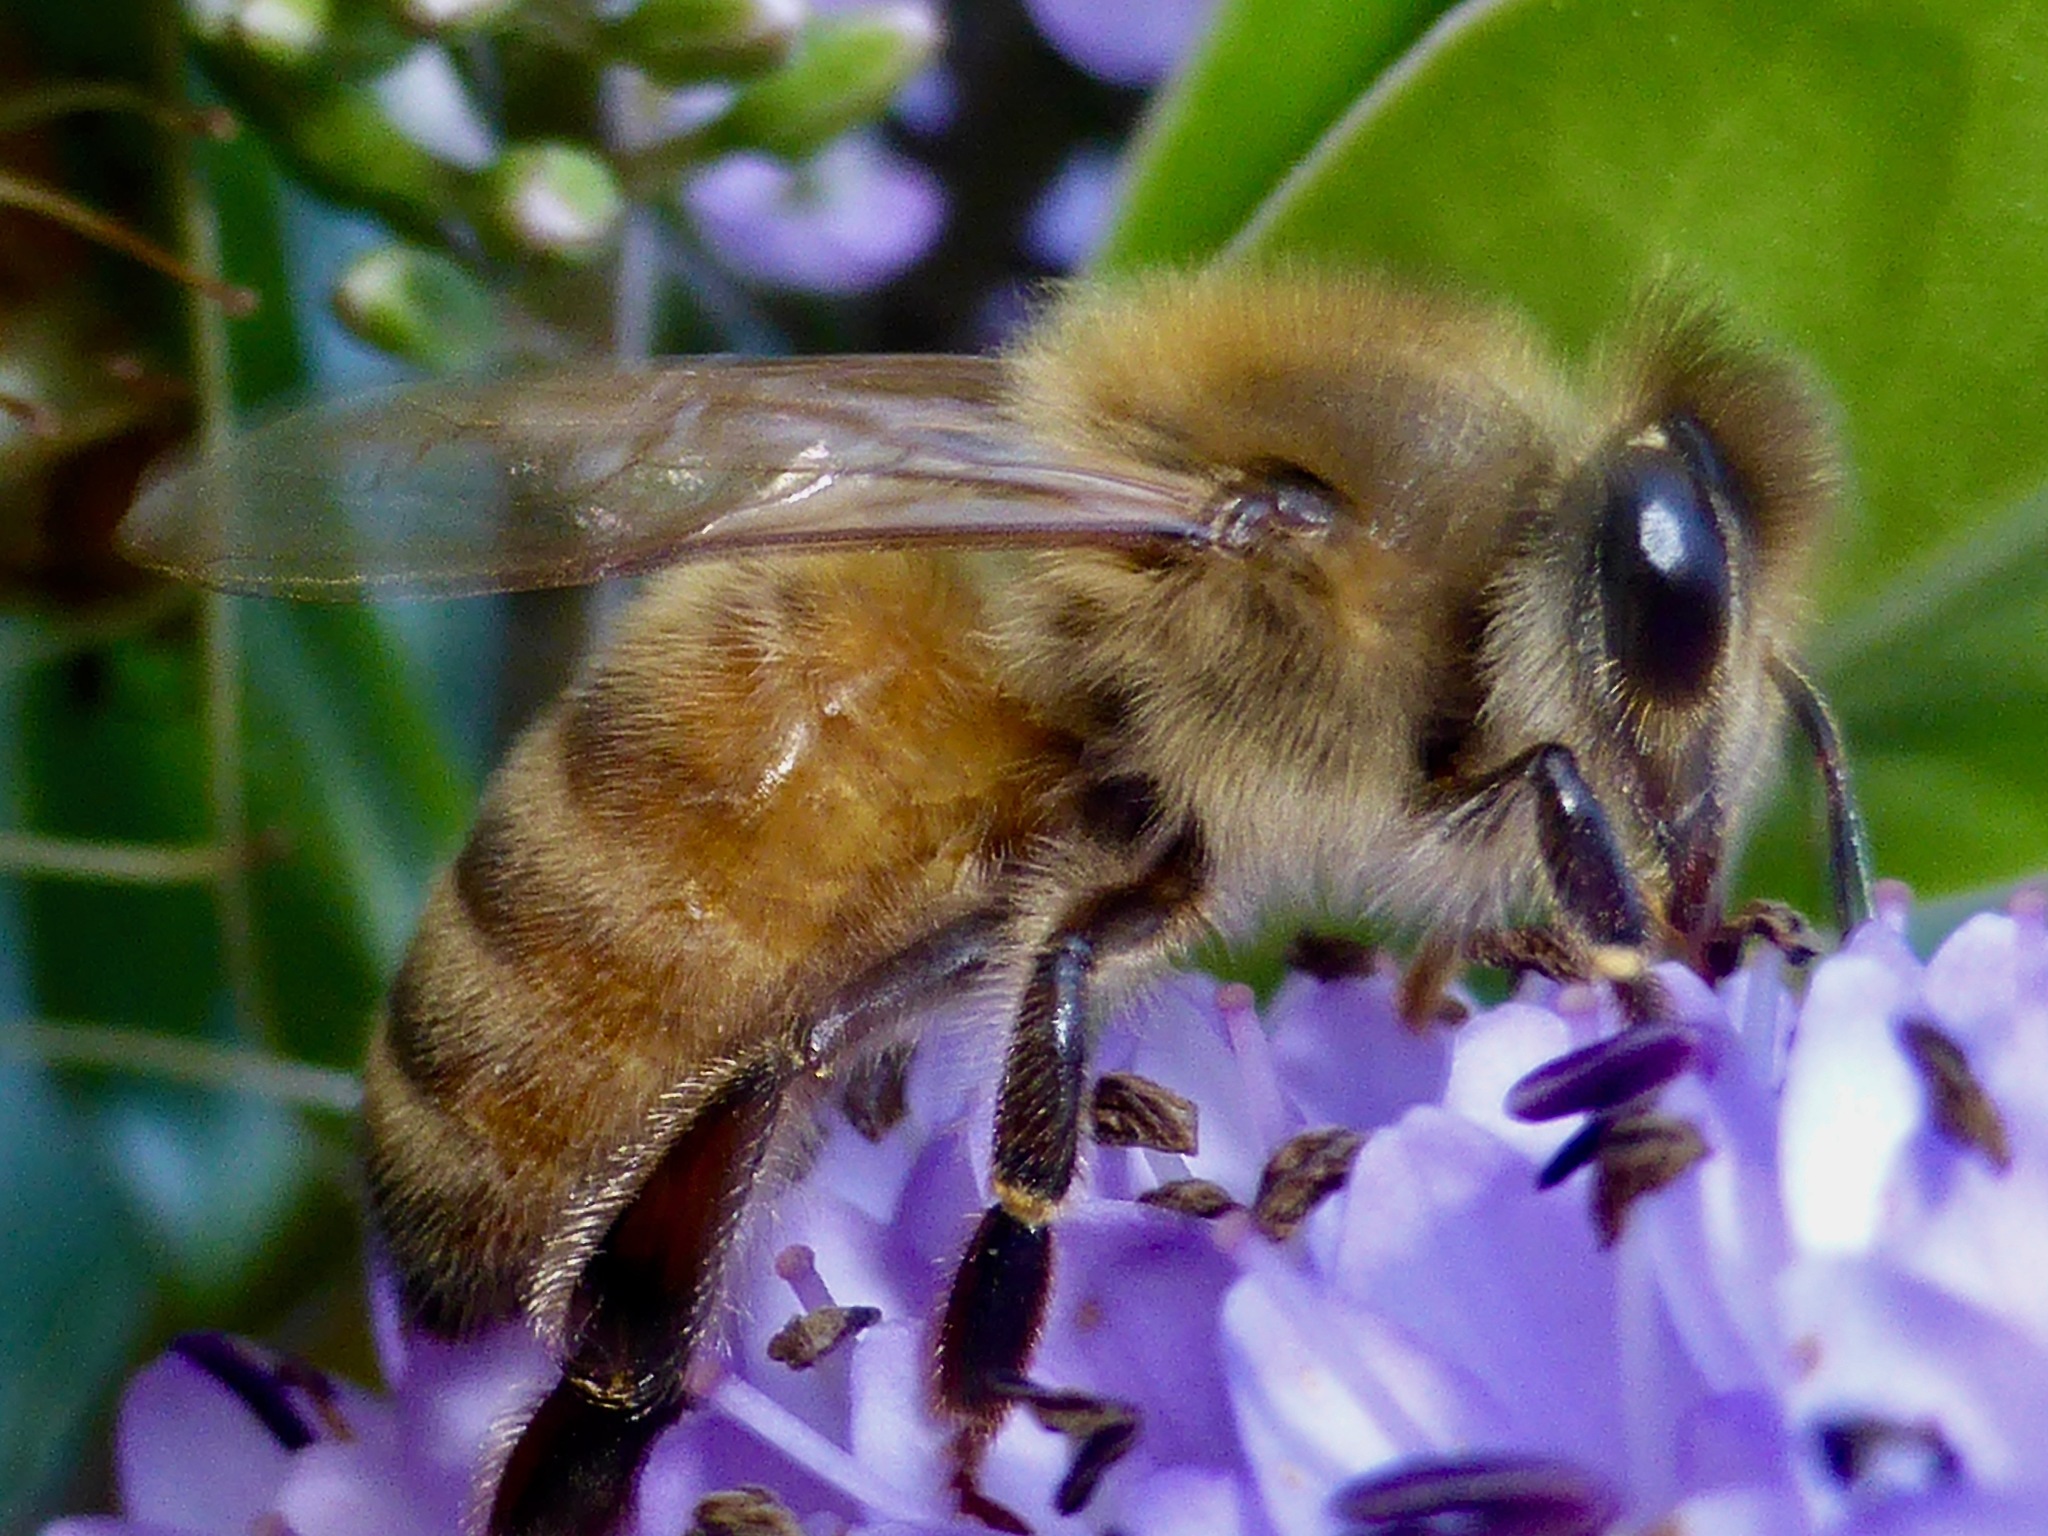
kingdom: Animalia
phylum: Arthropoda
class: Insecta
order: Hymenoptera
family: Apidae
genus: Apis
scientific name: Apis mellifera
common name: Honey bee
